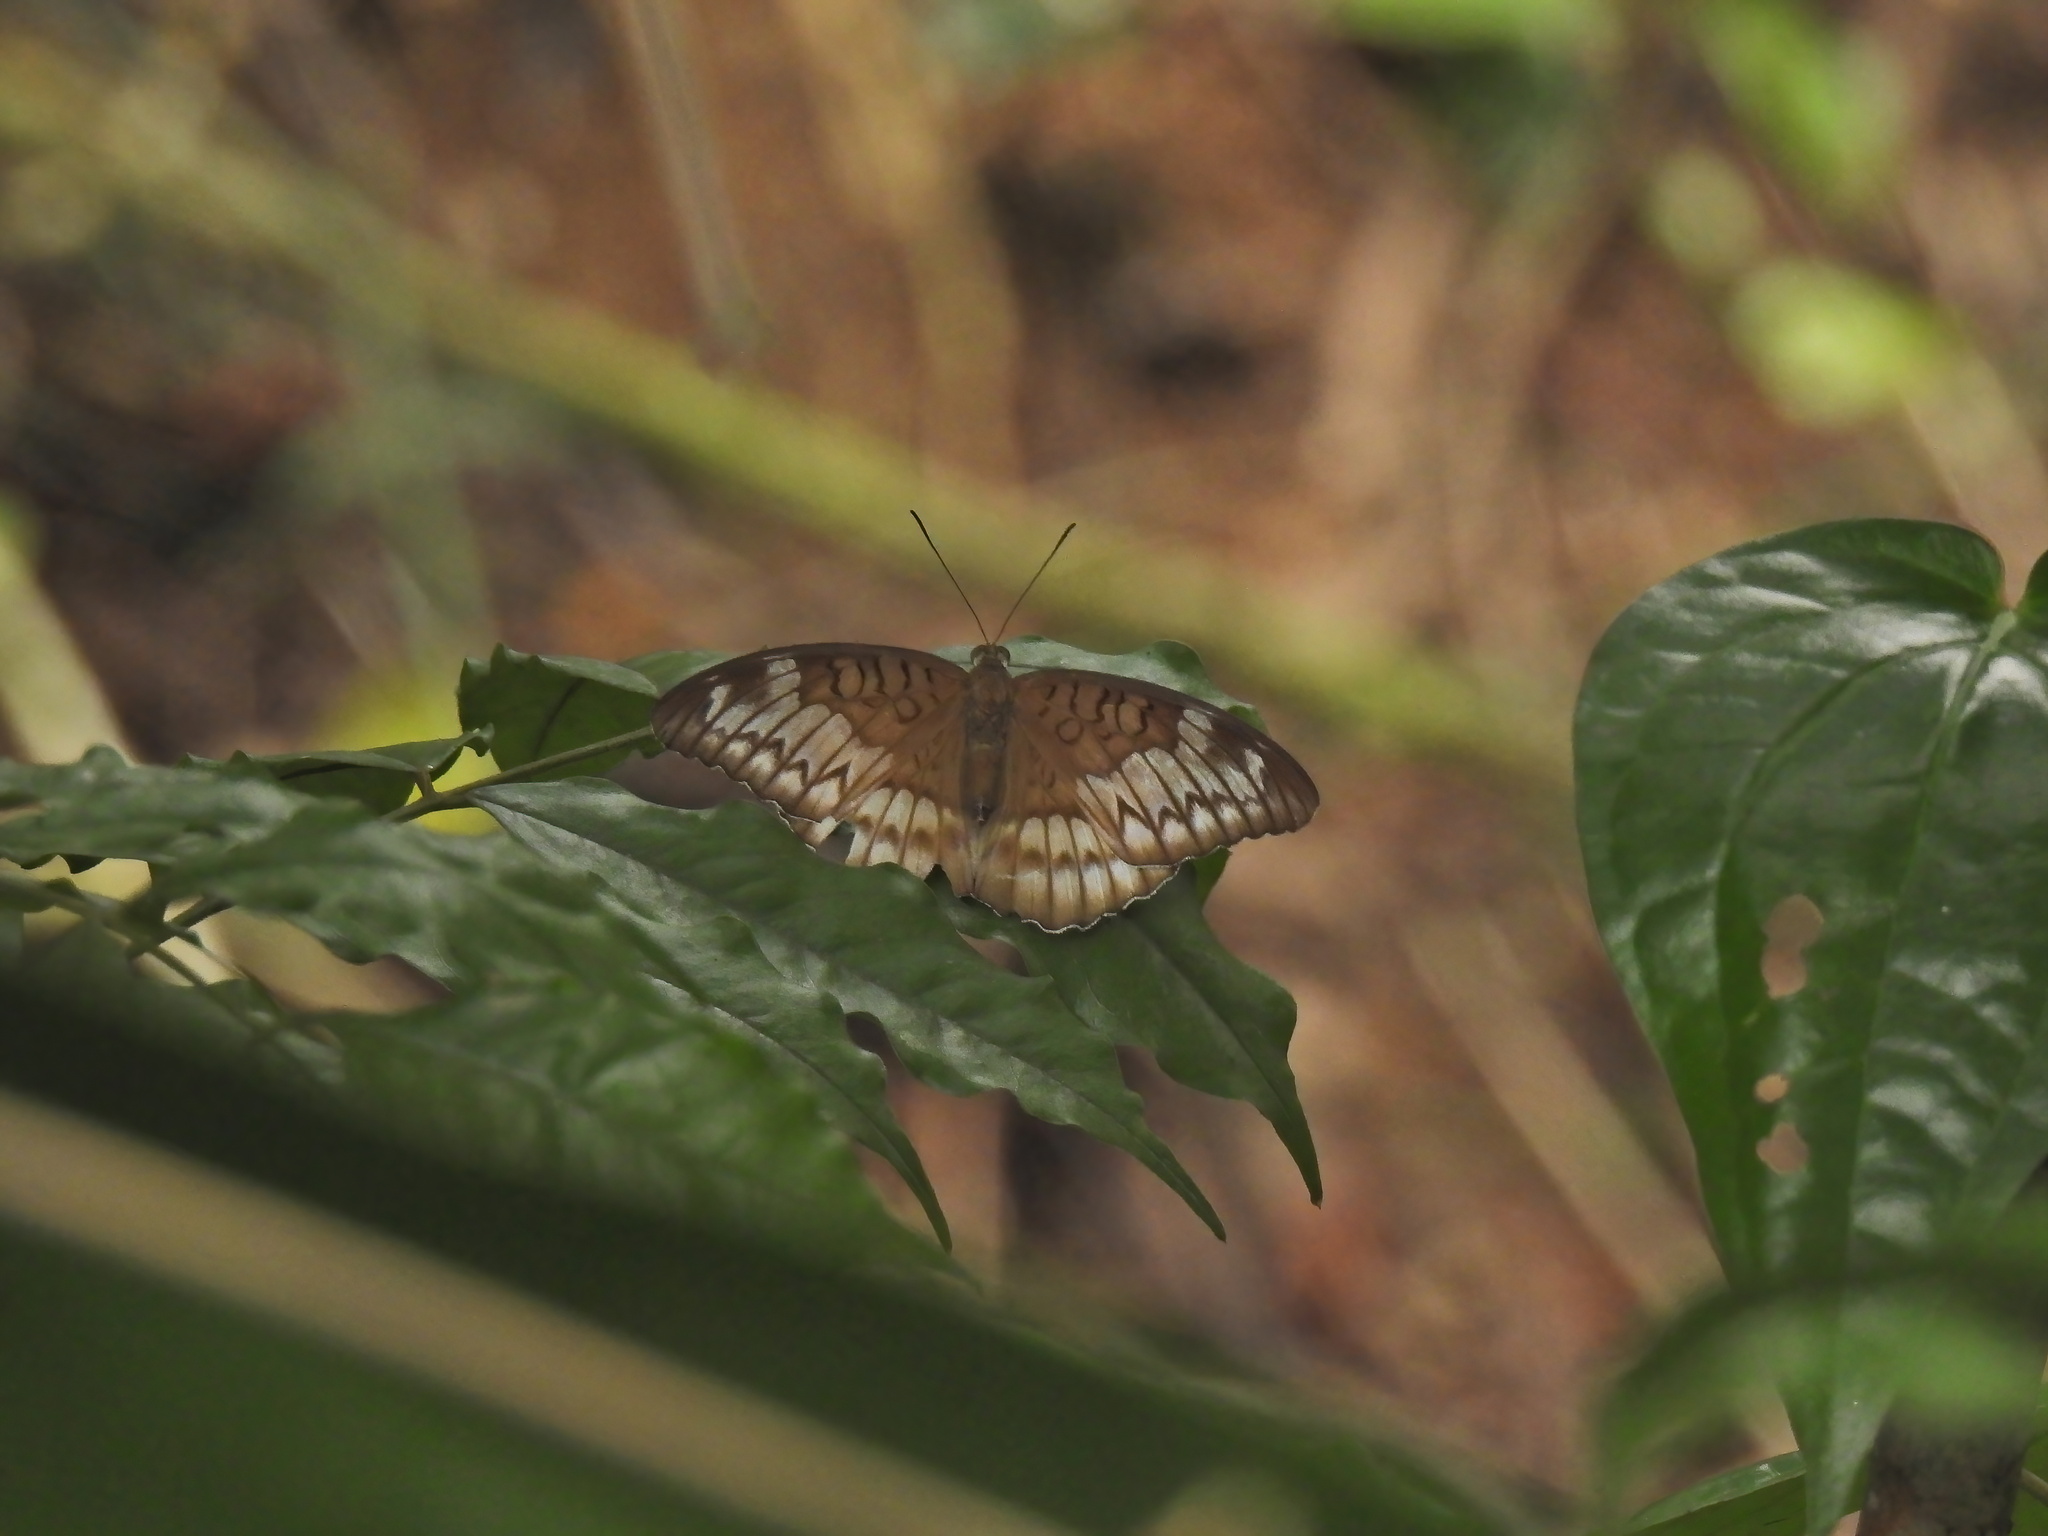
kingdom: Animalia
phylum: Arthropoda
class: Insecta
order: Lepidoptera
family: Nymphalidae
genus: Tanaecia
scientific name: Tanaecia iapis
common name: Horsfield's baron
